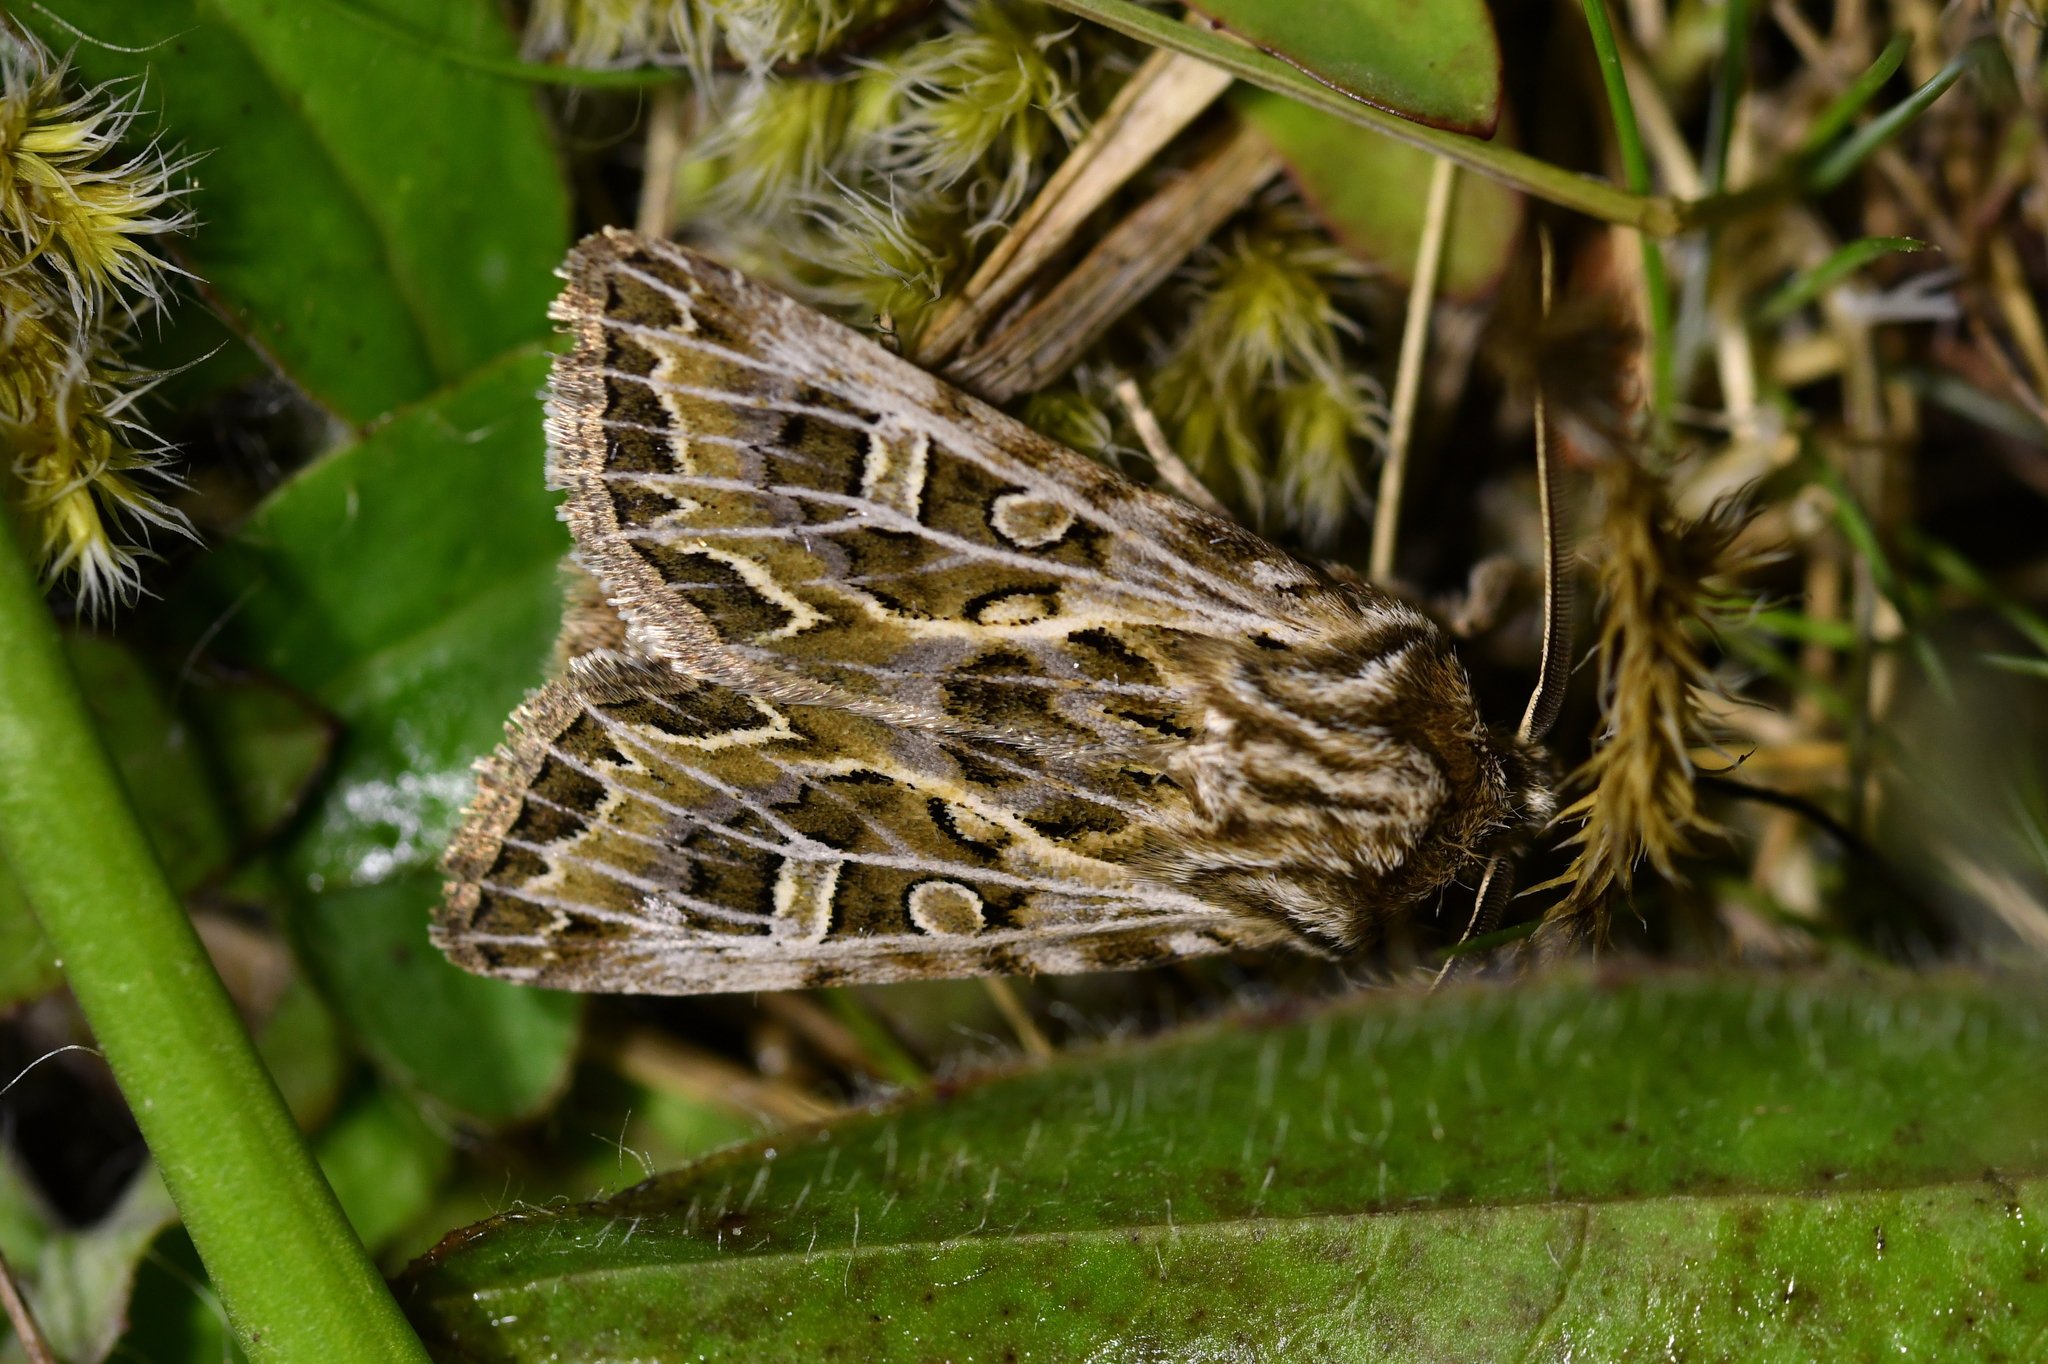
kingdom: Animalia
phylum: Arthropoda
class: Insecta
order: Lepidoptera
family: Noctuidae
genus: Ichneutica
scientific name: Ichneutica
